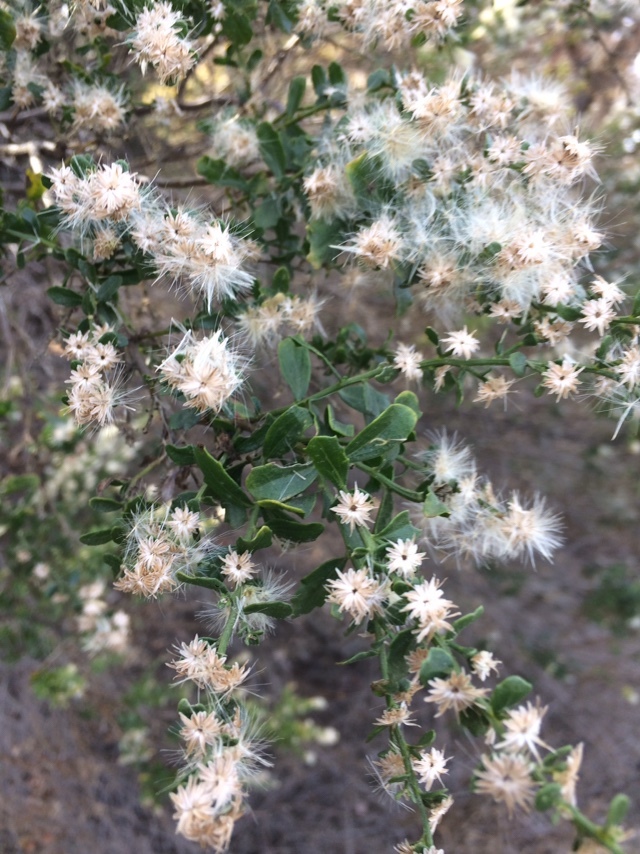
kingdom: Plantae
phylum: Tracheophyta
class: Magnoliopsida
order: Asterales
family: Asteraceae
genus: Baccharis
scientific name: Baccharis pilularis
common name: Coyotebrush
